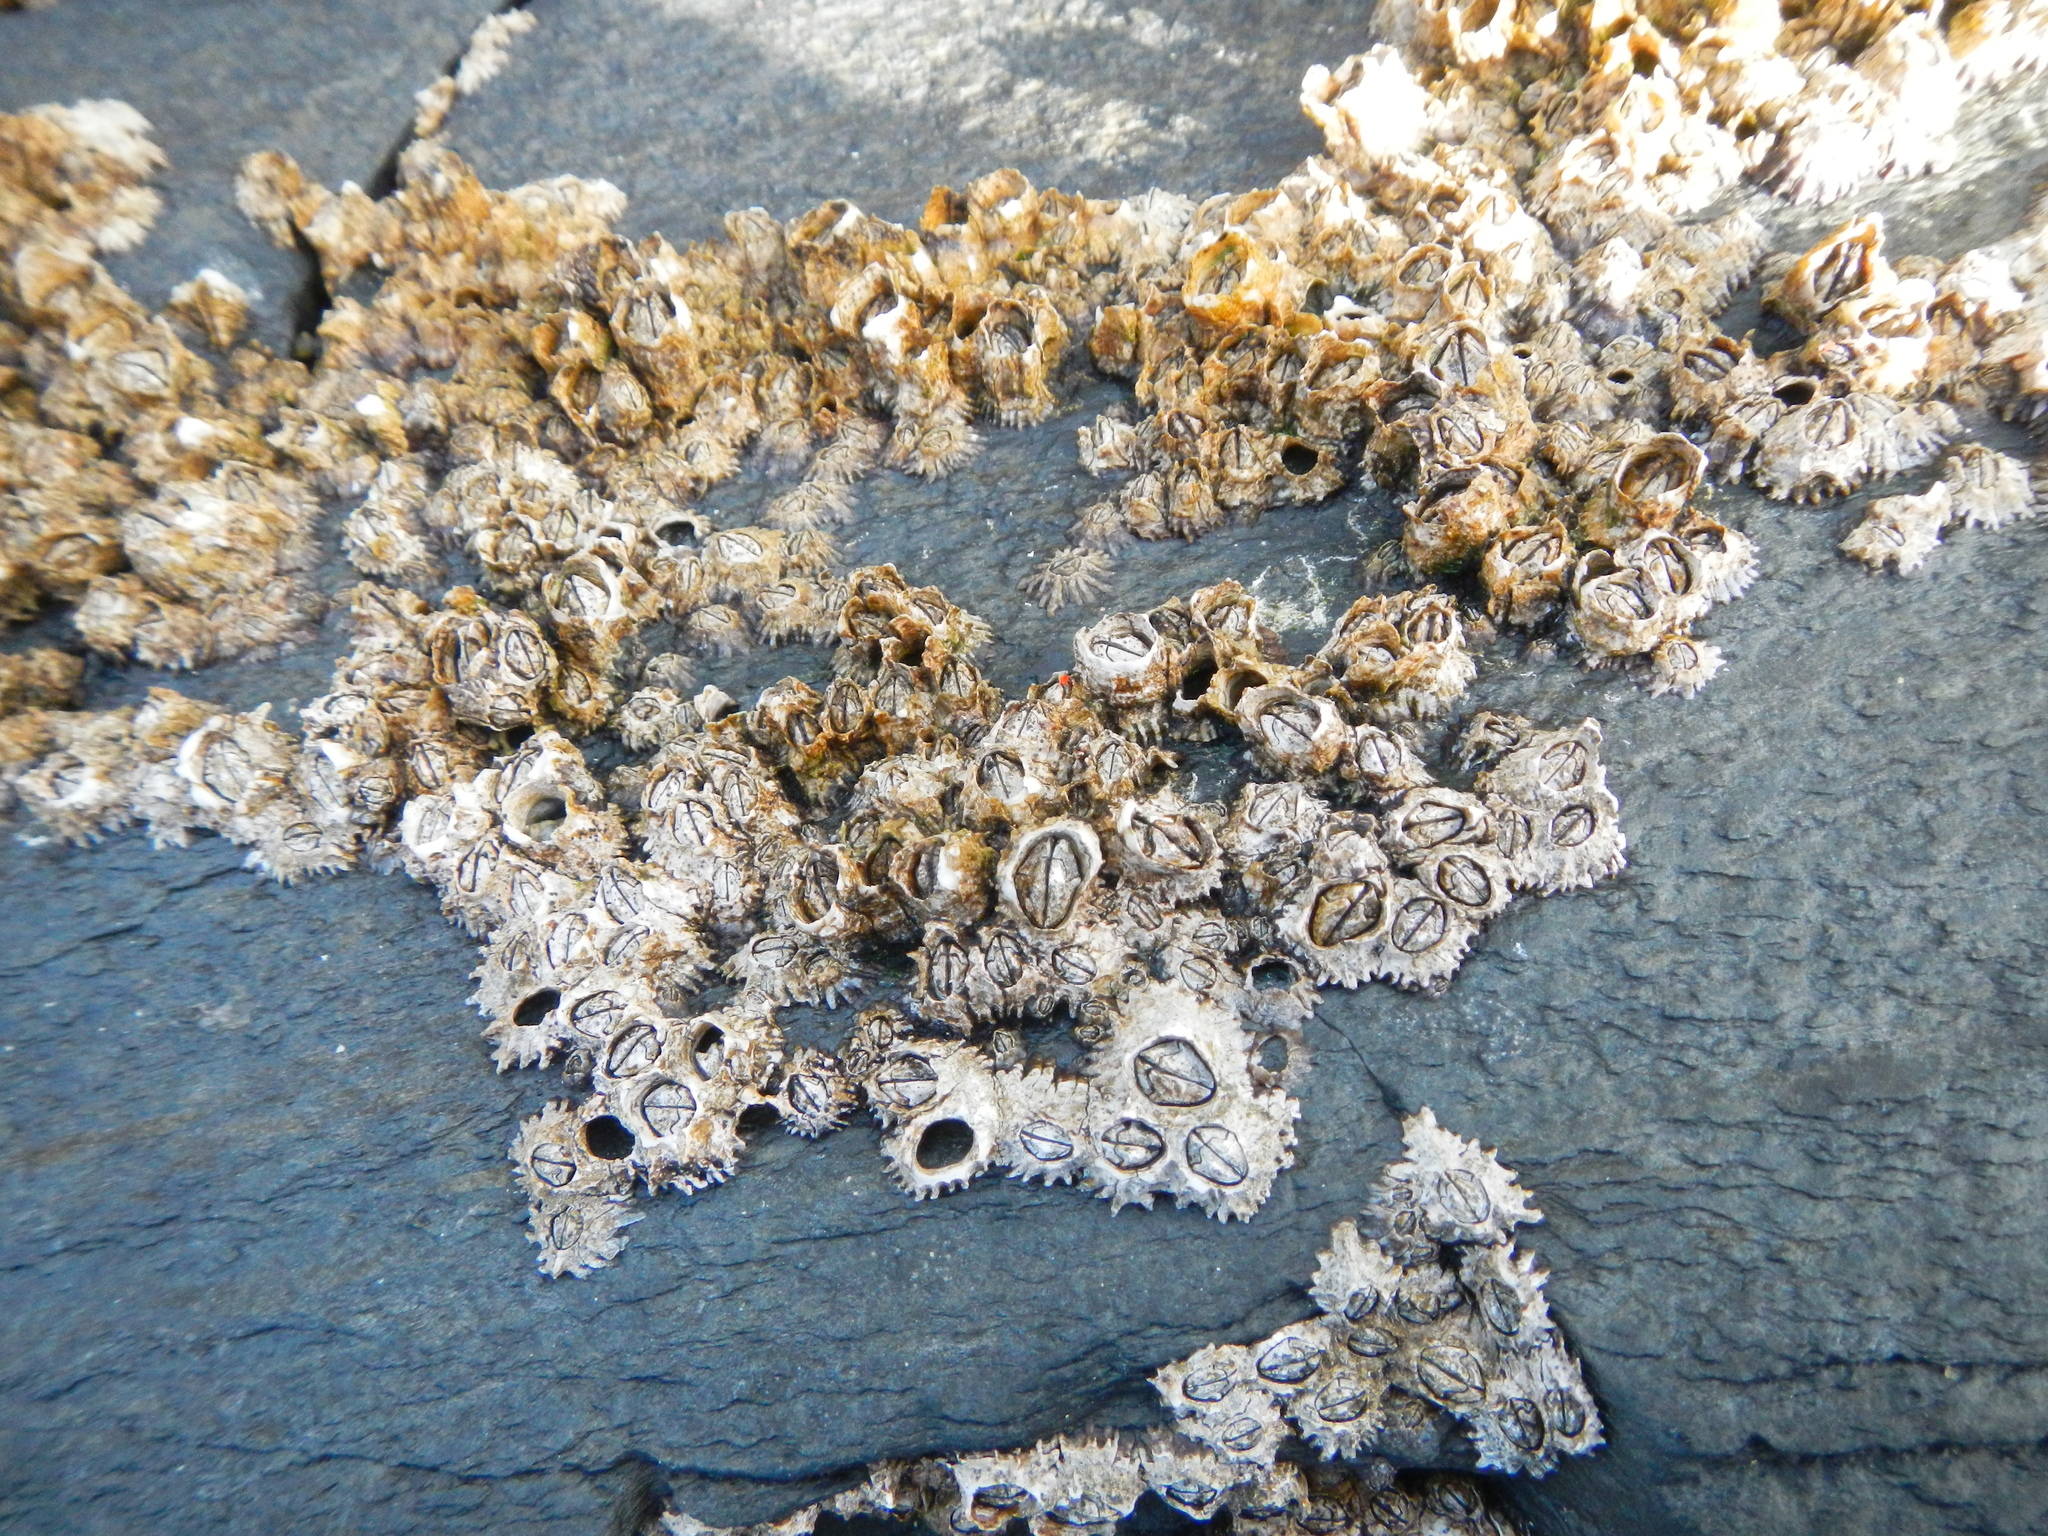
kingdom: Animalia
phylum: Arthropoda
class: Maxillopoda
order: Sessilia
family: Chthamalidae
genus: Jehlius
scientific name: Jehlius cirratus
